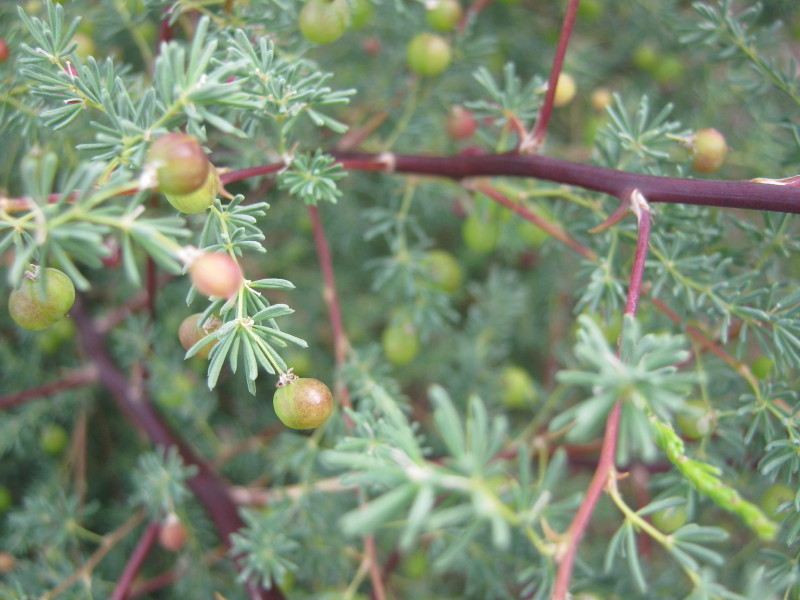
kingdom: Plantae
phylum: Tracheophyta
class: Liliopsida
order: Asparagales
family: Asparagaceae
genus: Asparagus
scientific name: Asparagus rubicundus
